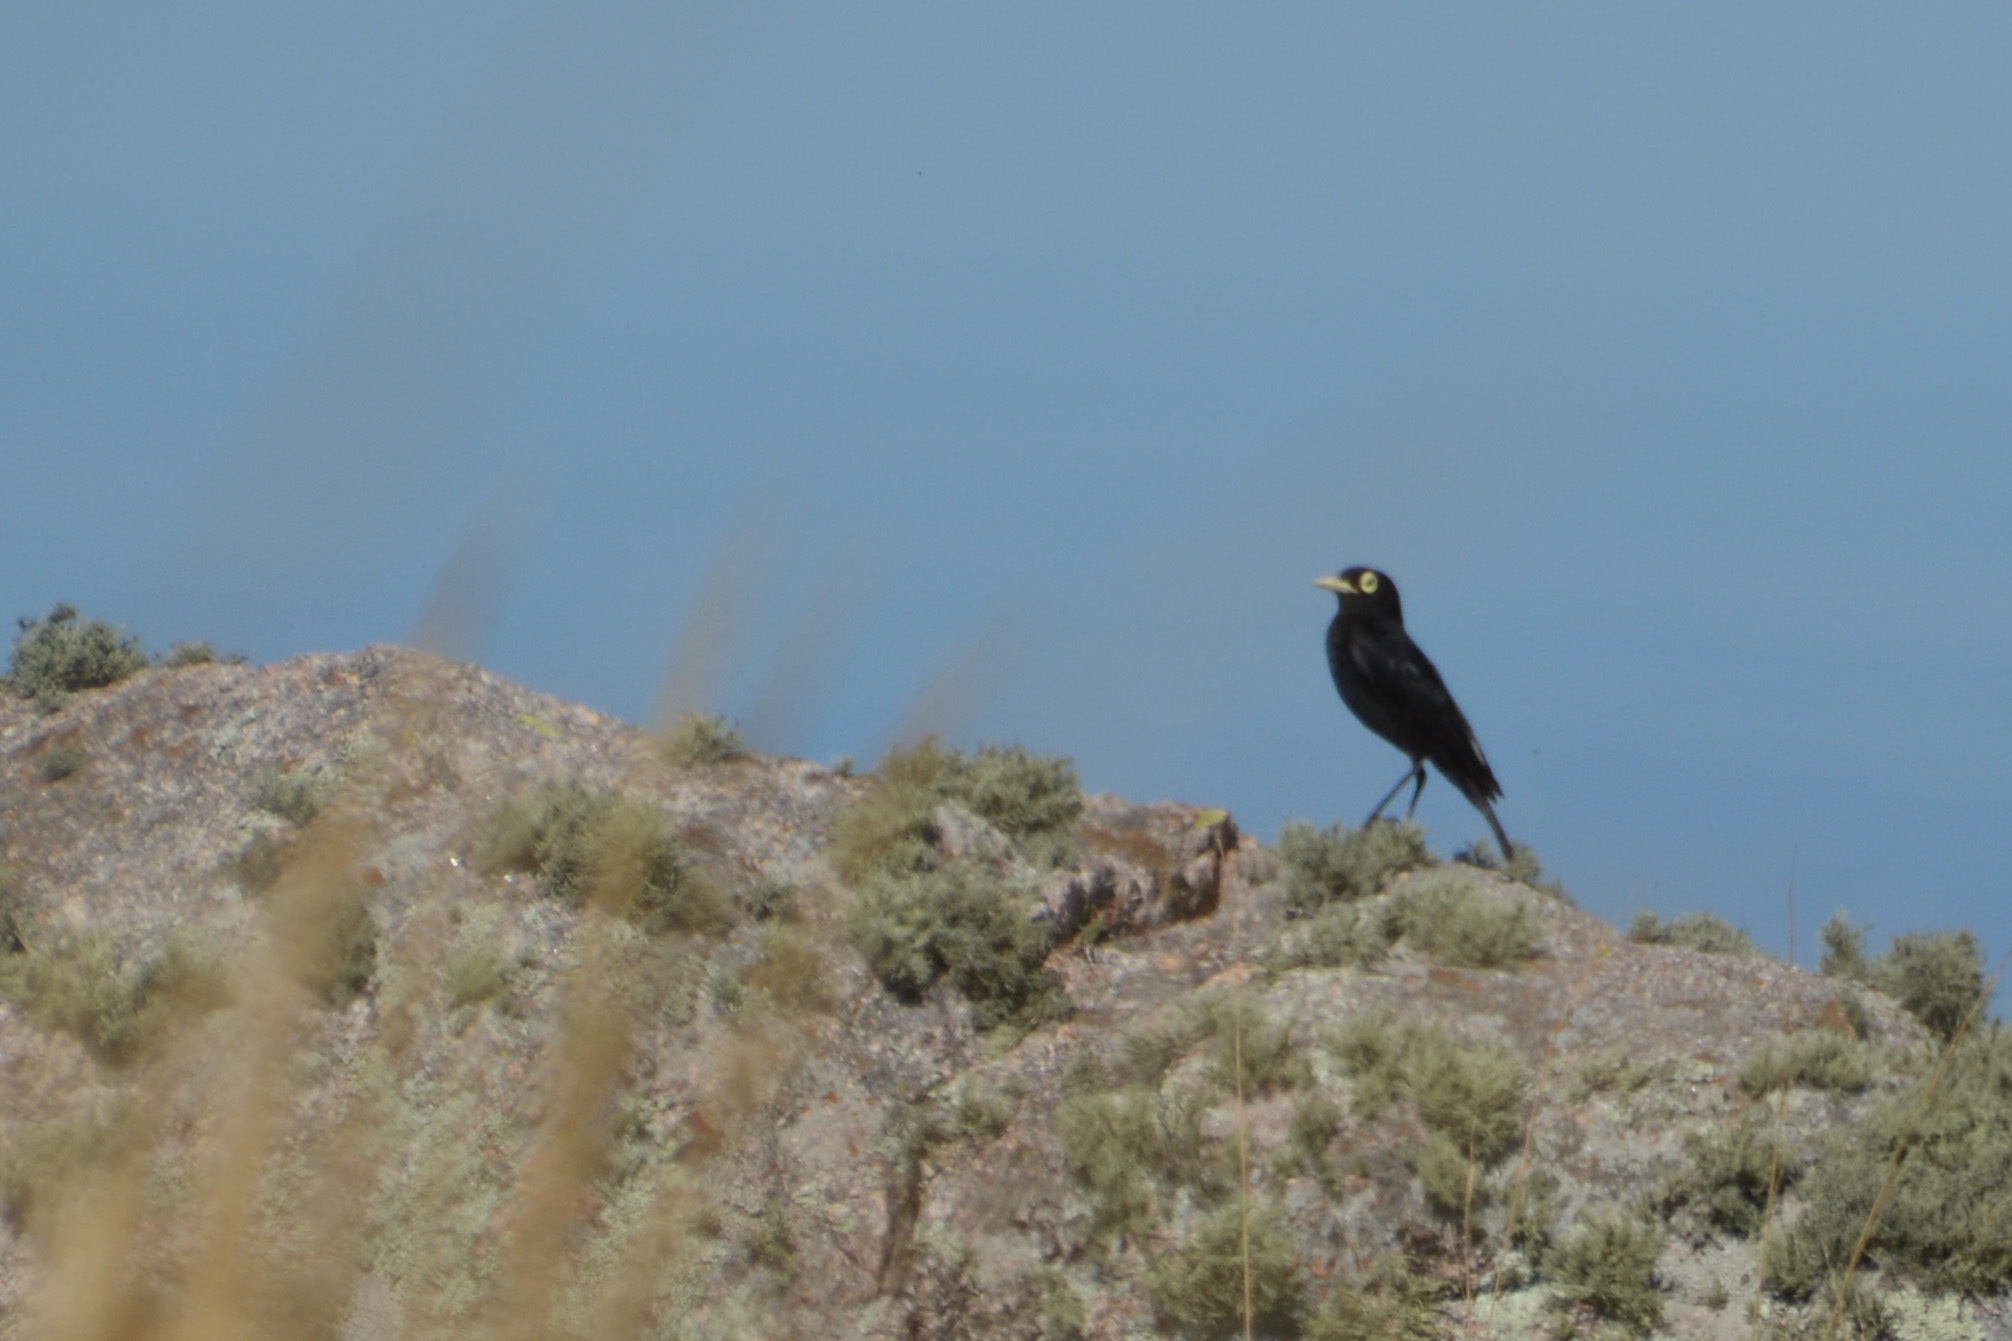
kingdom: Animalia
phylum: Chordata
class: Aves
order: Passeriformes
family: Tyrannidae
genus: Hymenops
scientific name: Hymenops perspicillatus
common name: Spectacled tyrant
